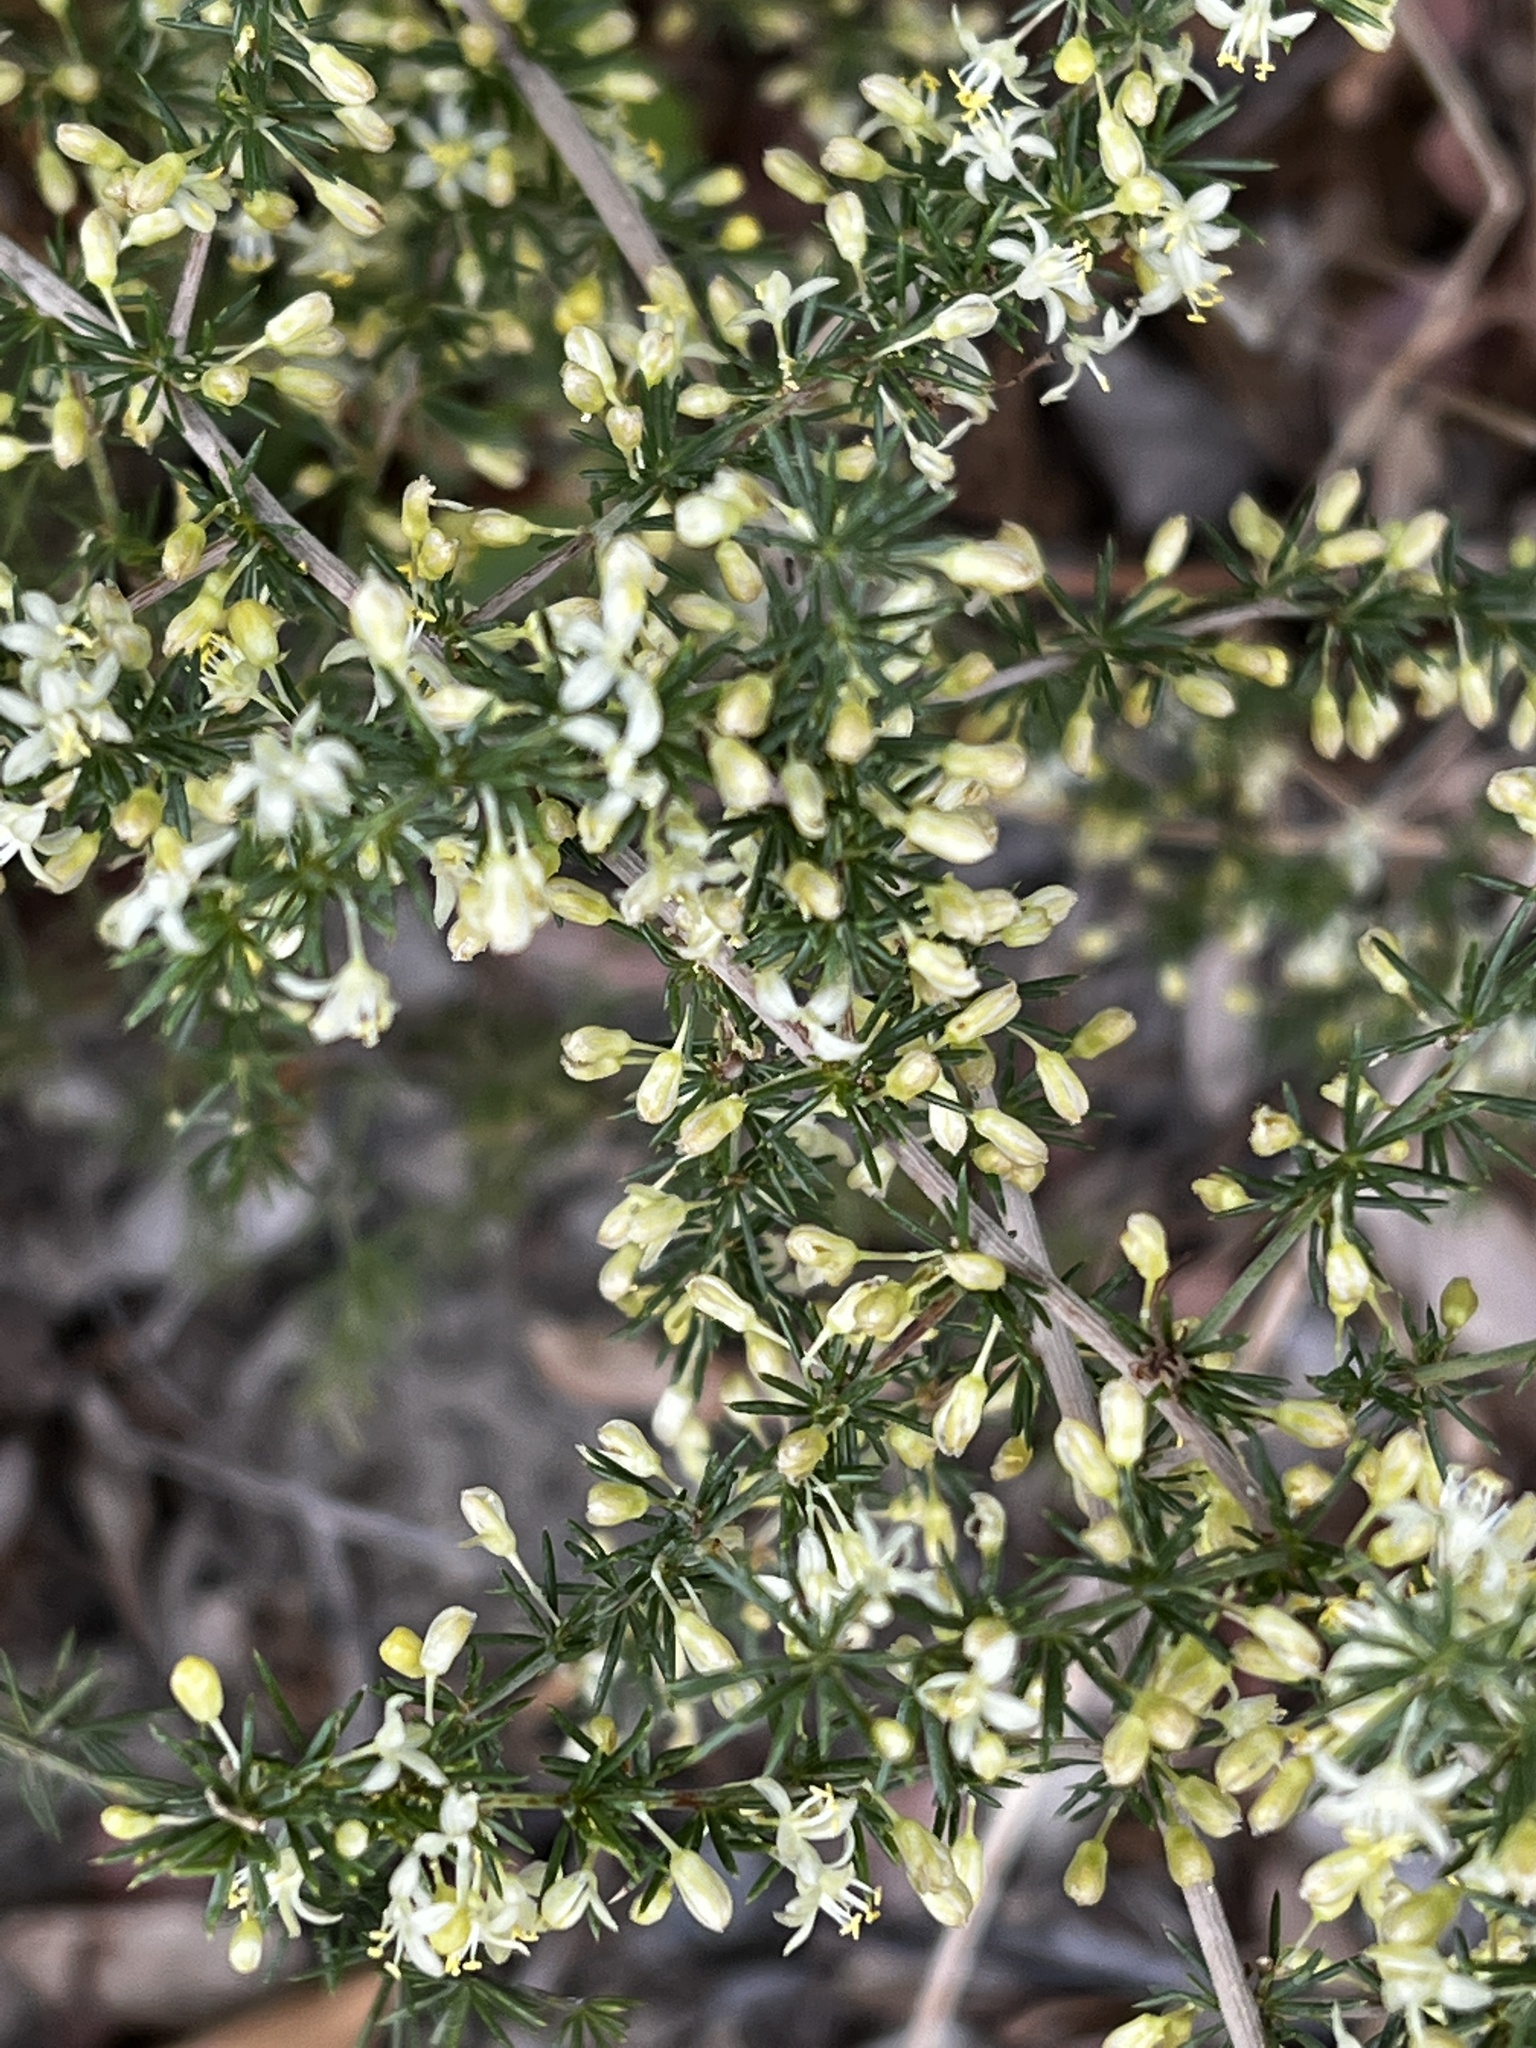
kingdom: Plantae
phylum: Tracheophyta
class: Liliopsida
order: Asparagales
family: Asparagaceae
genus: Asparagus
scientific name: Asparagus acutifolius
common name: Wild asparagus
